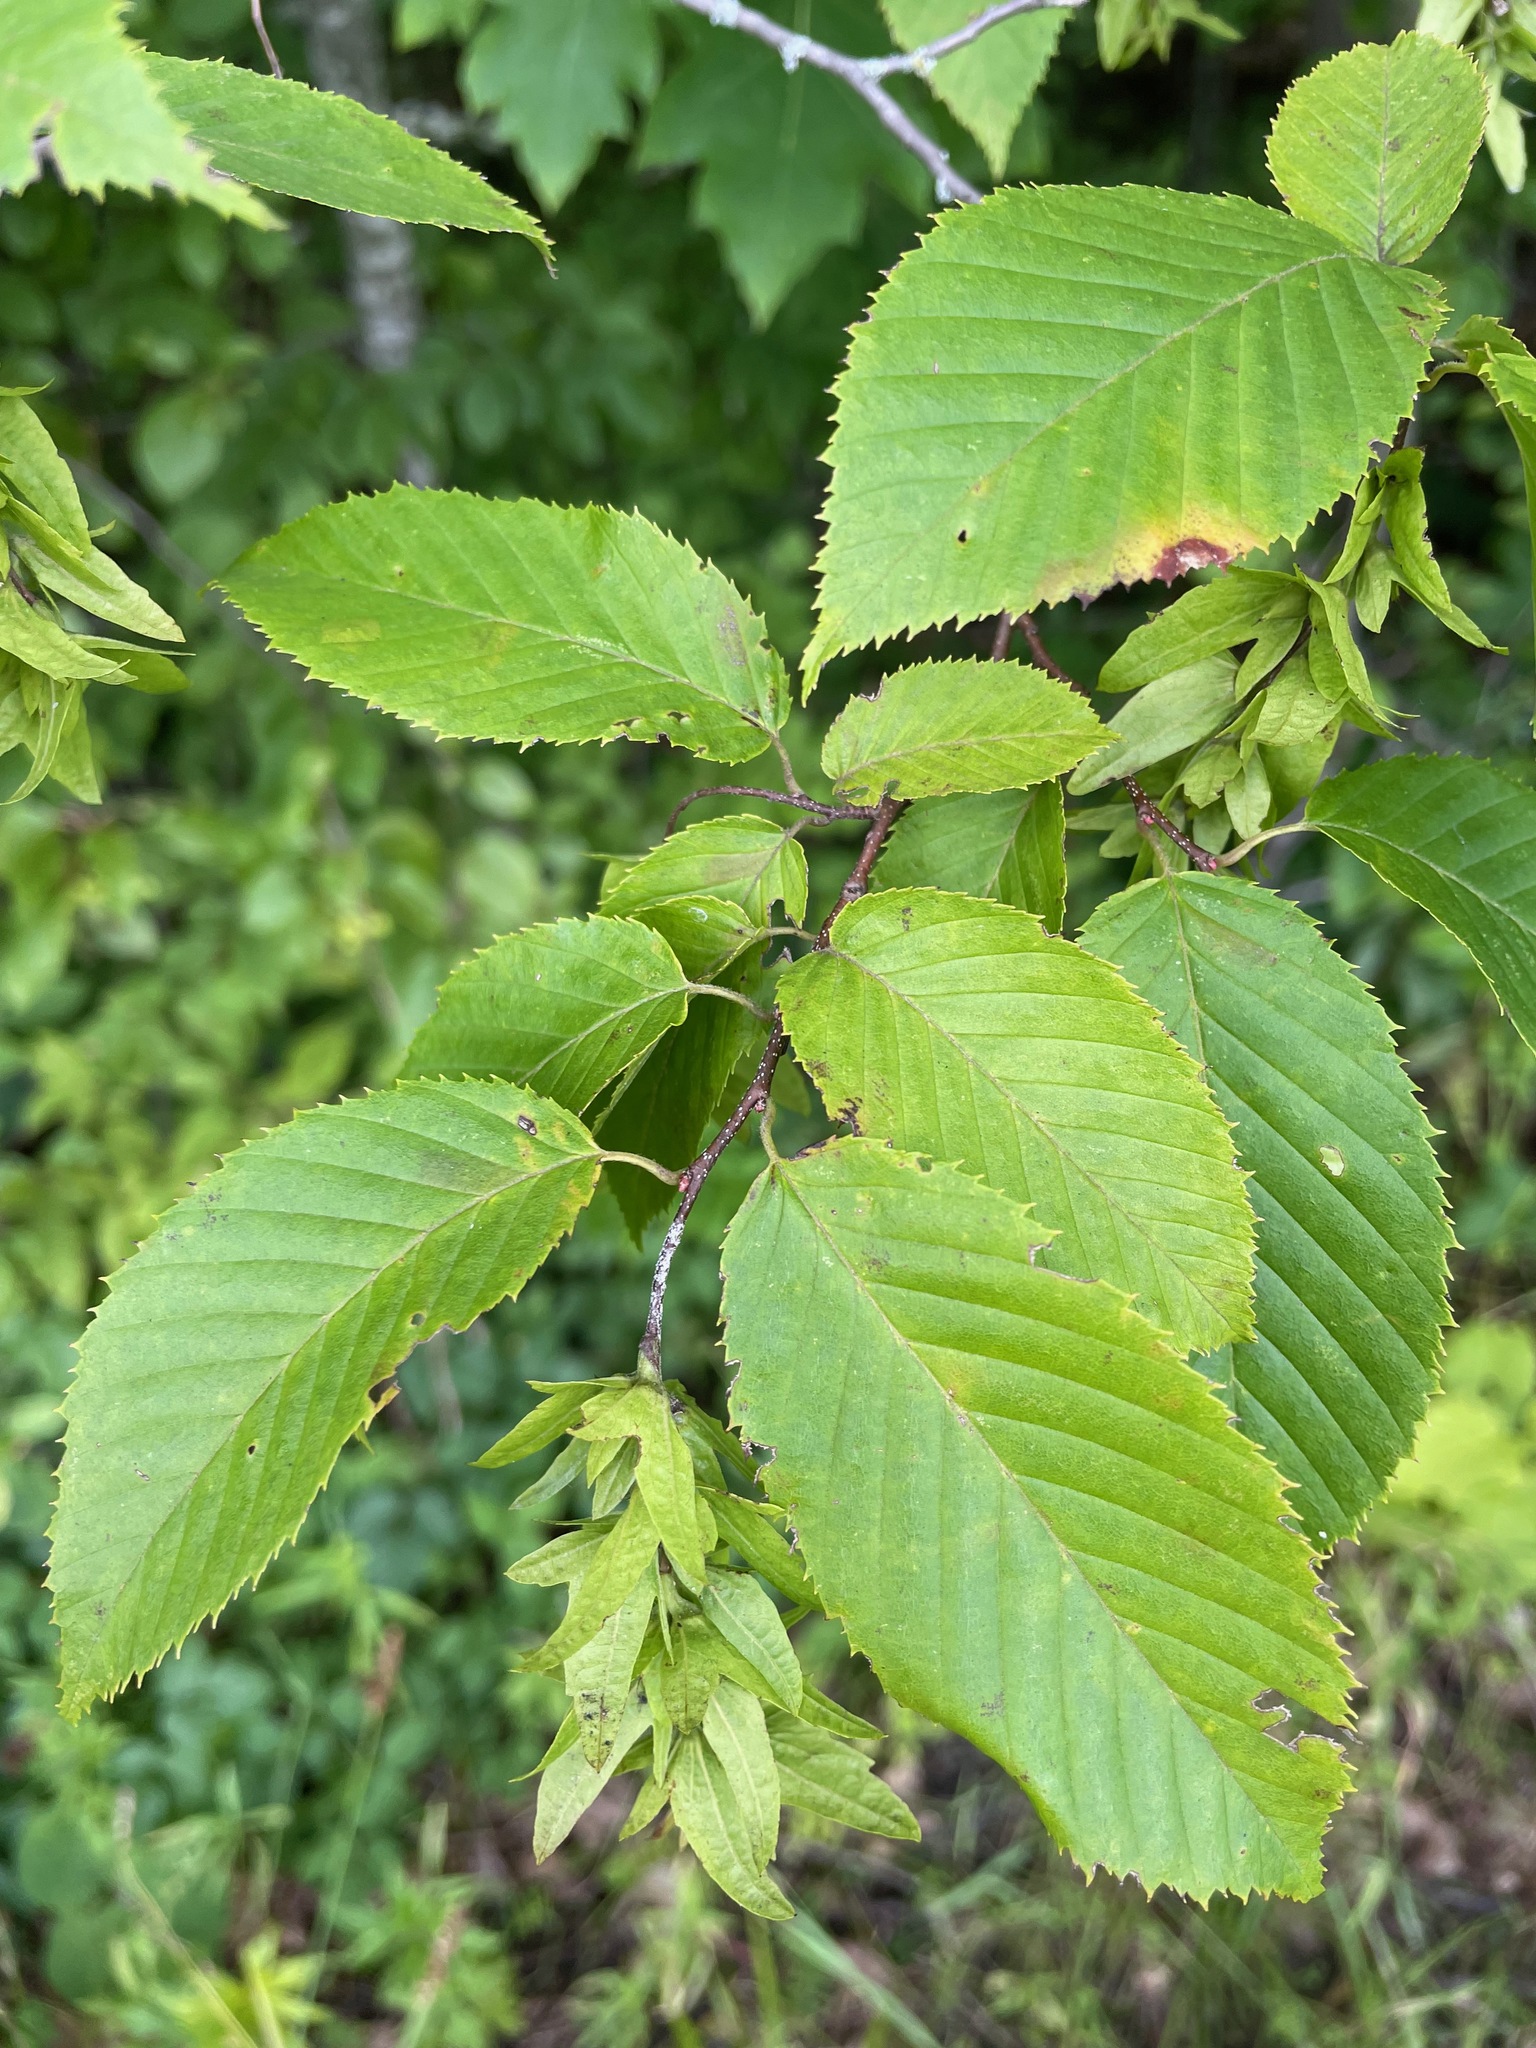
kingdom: Plantae
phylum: Tracheophyta
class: Magnoliopsida
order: Fagales
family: Betulaceae
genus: Carpinus
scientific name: Carpinus caroliniana
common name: American hornbeam
